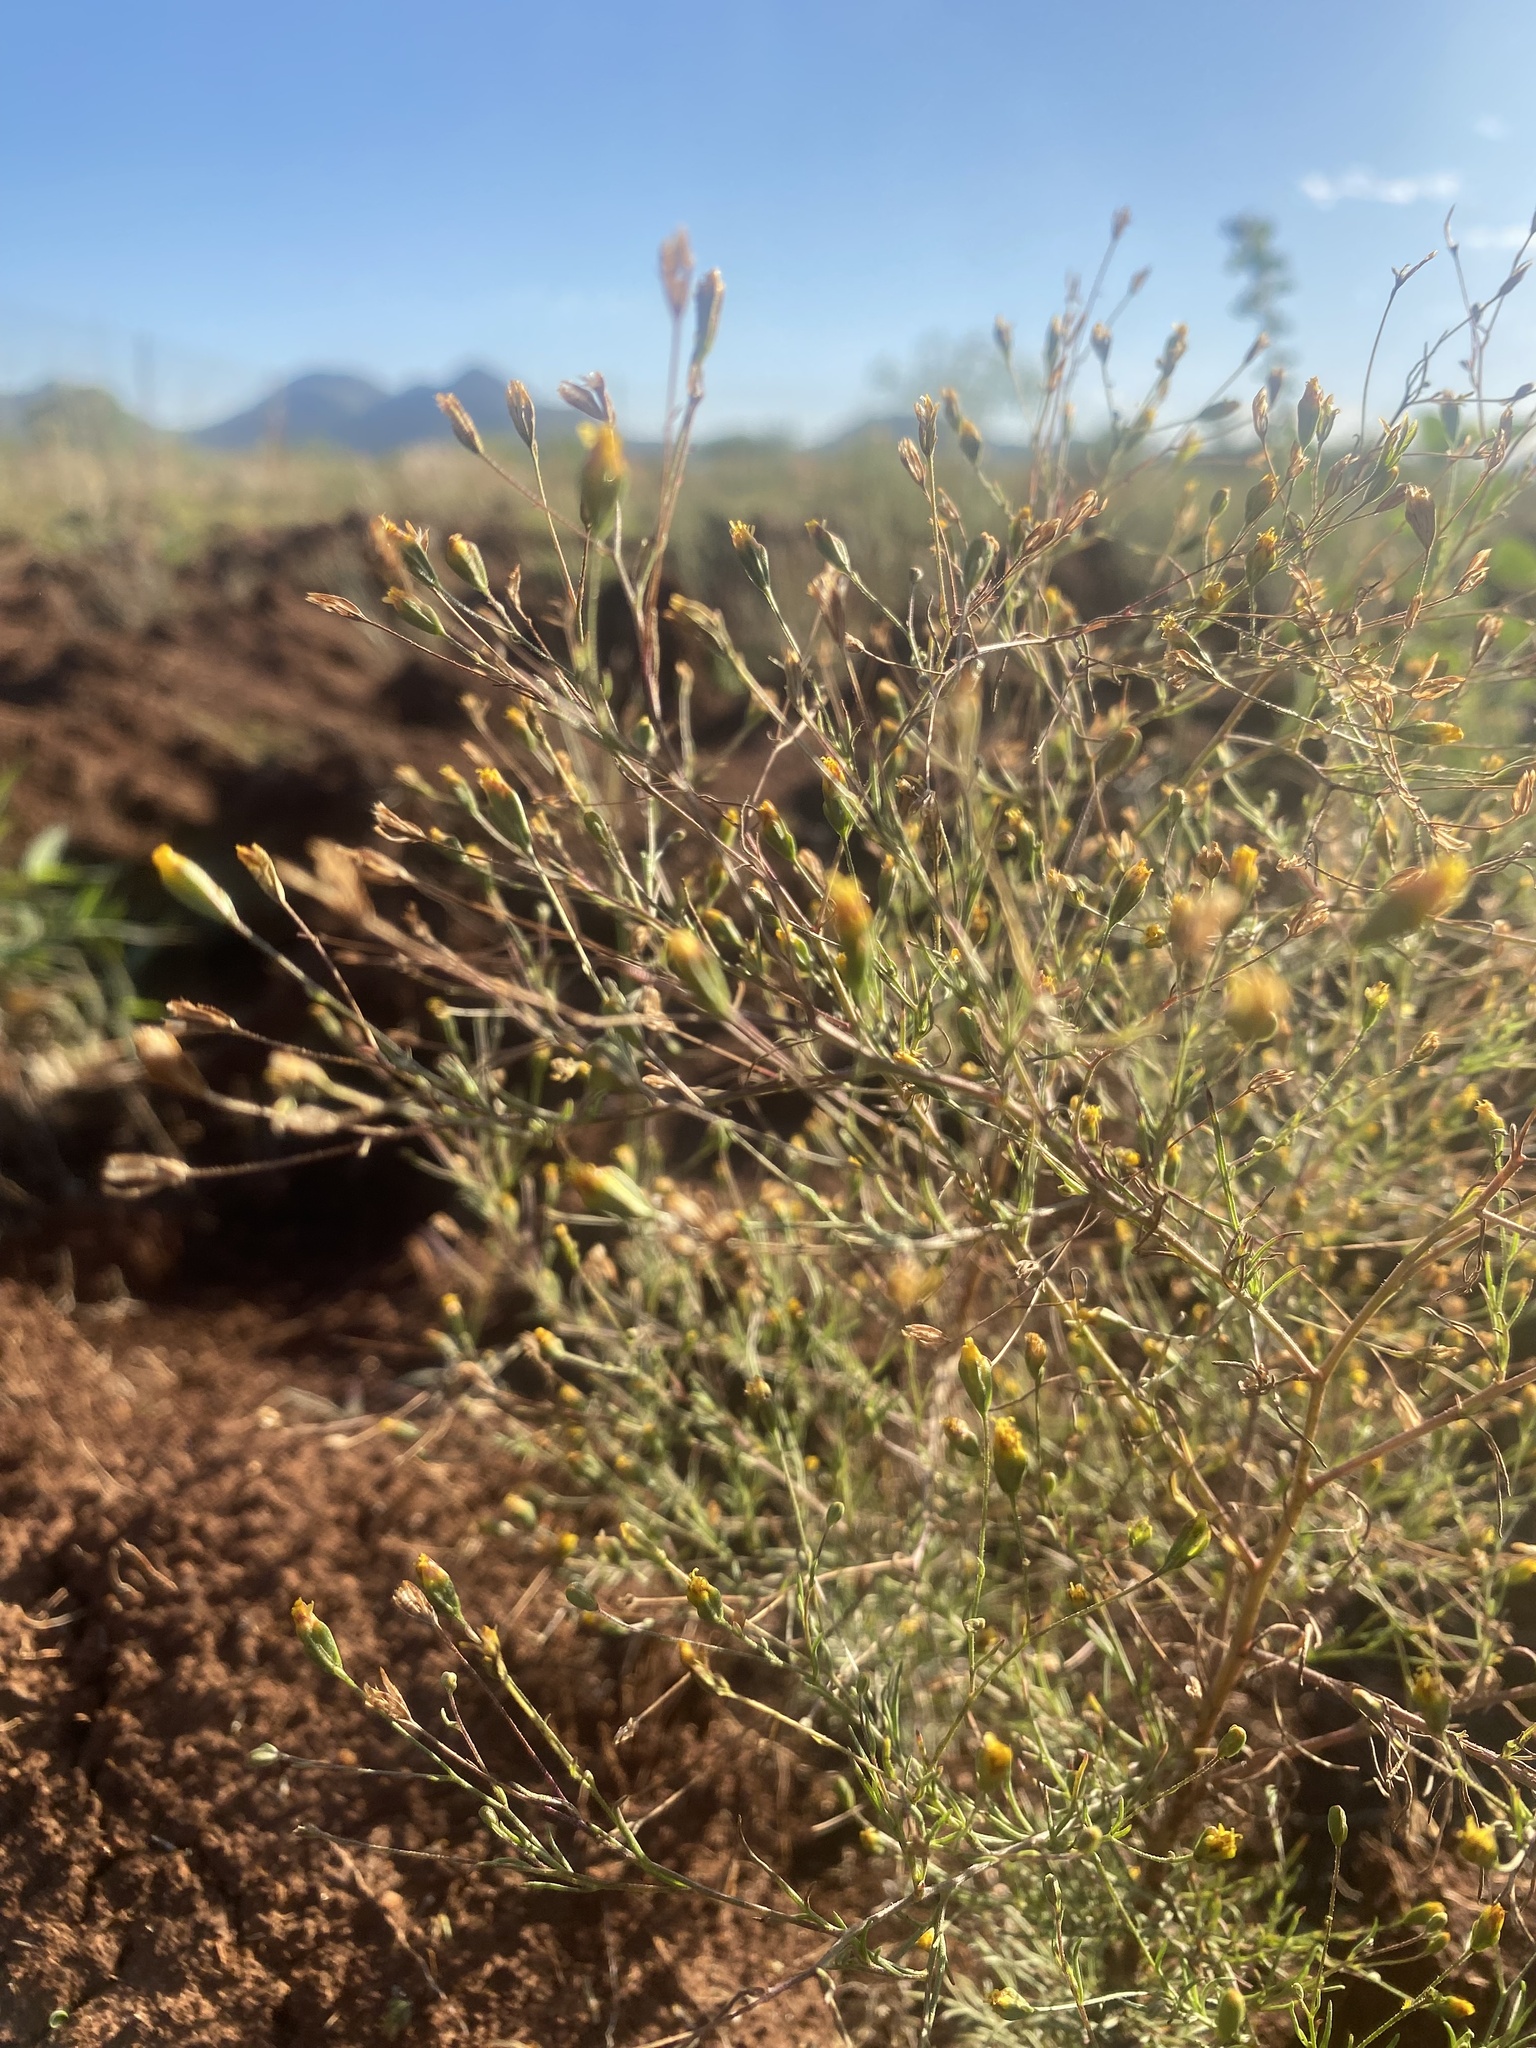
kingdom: Plantae
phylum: Tracheophyta
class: Magnoliopsida
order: Asterales
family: Asteraceae
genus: Schkuhria
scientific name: Schkuhria pinnata
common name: Dwarf marigold
